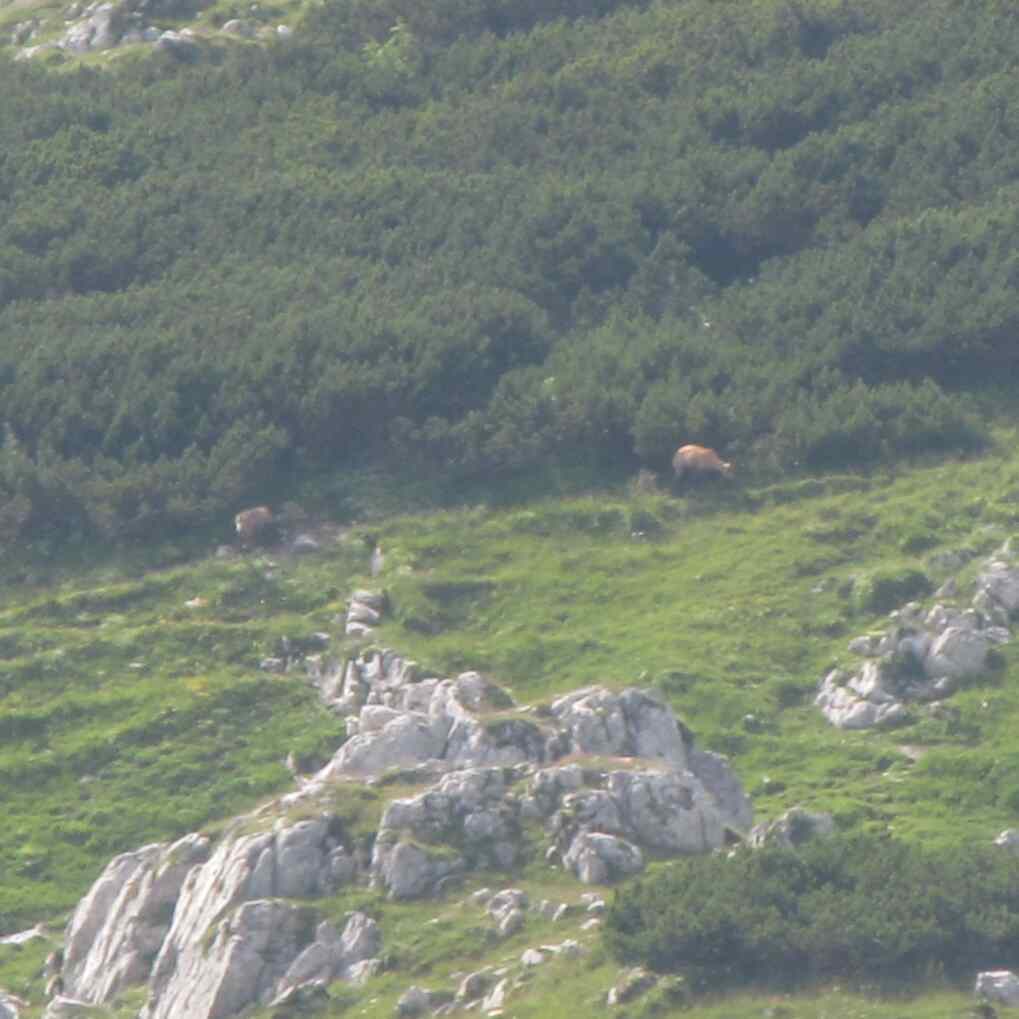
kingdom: Animalia
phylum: Chordata
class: Mammalia
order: Artiodactyla
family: Bovidae
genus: Rupicapra
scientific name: Rupicapra rupicapra
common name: Chamois
